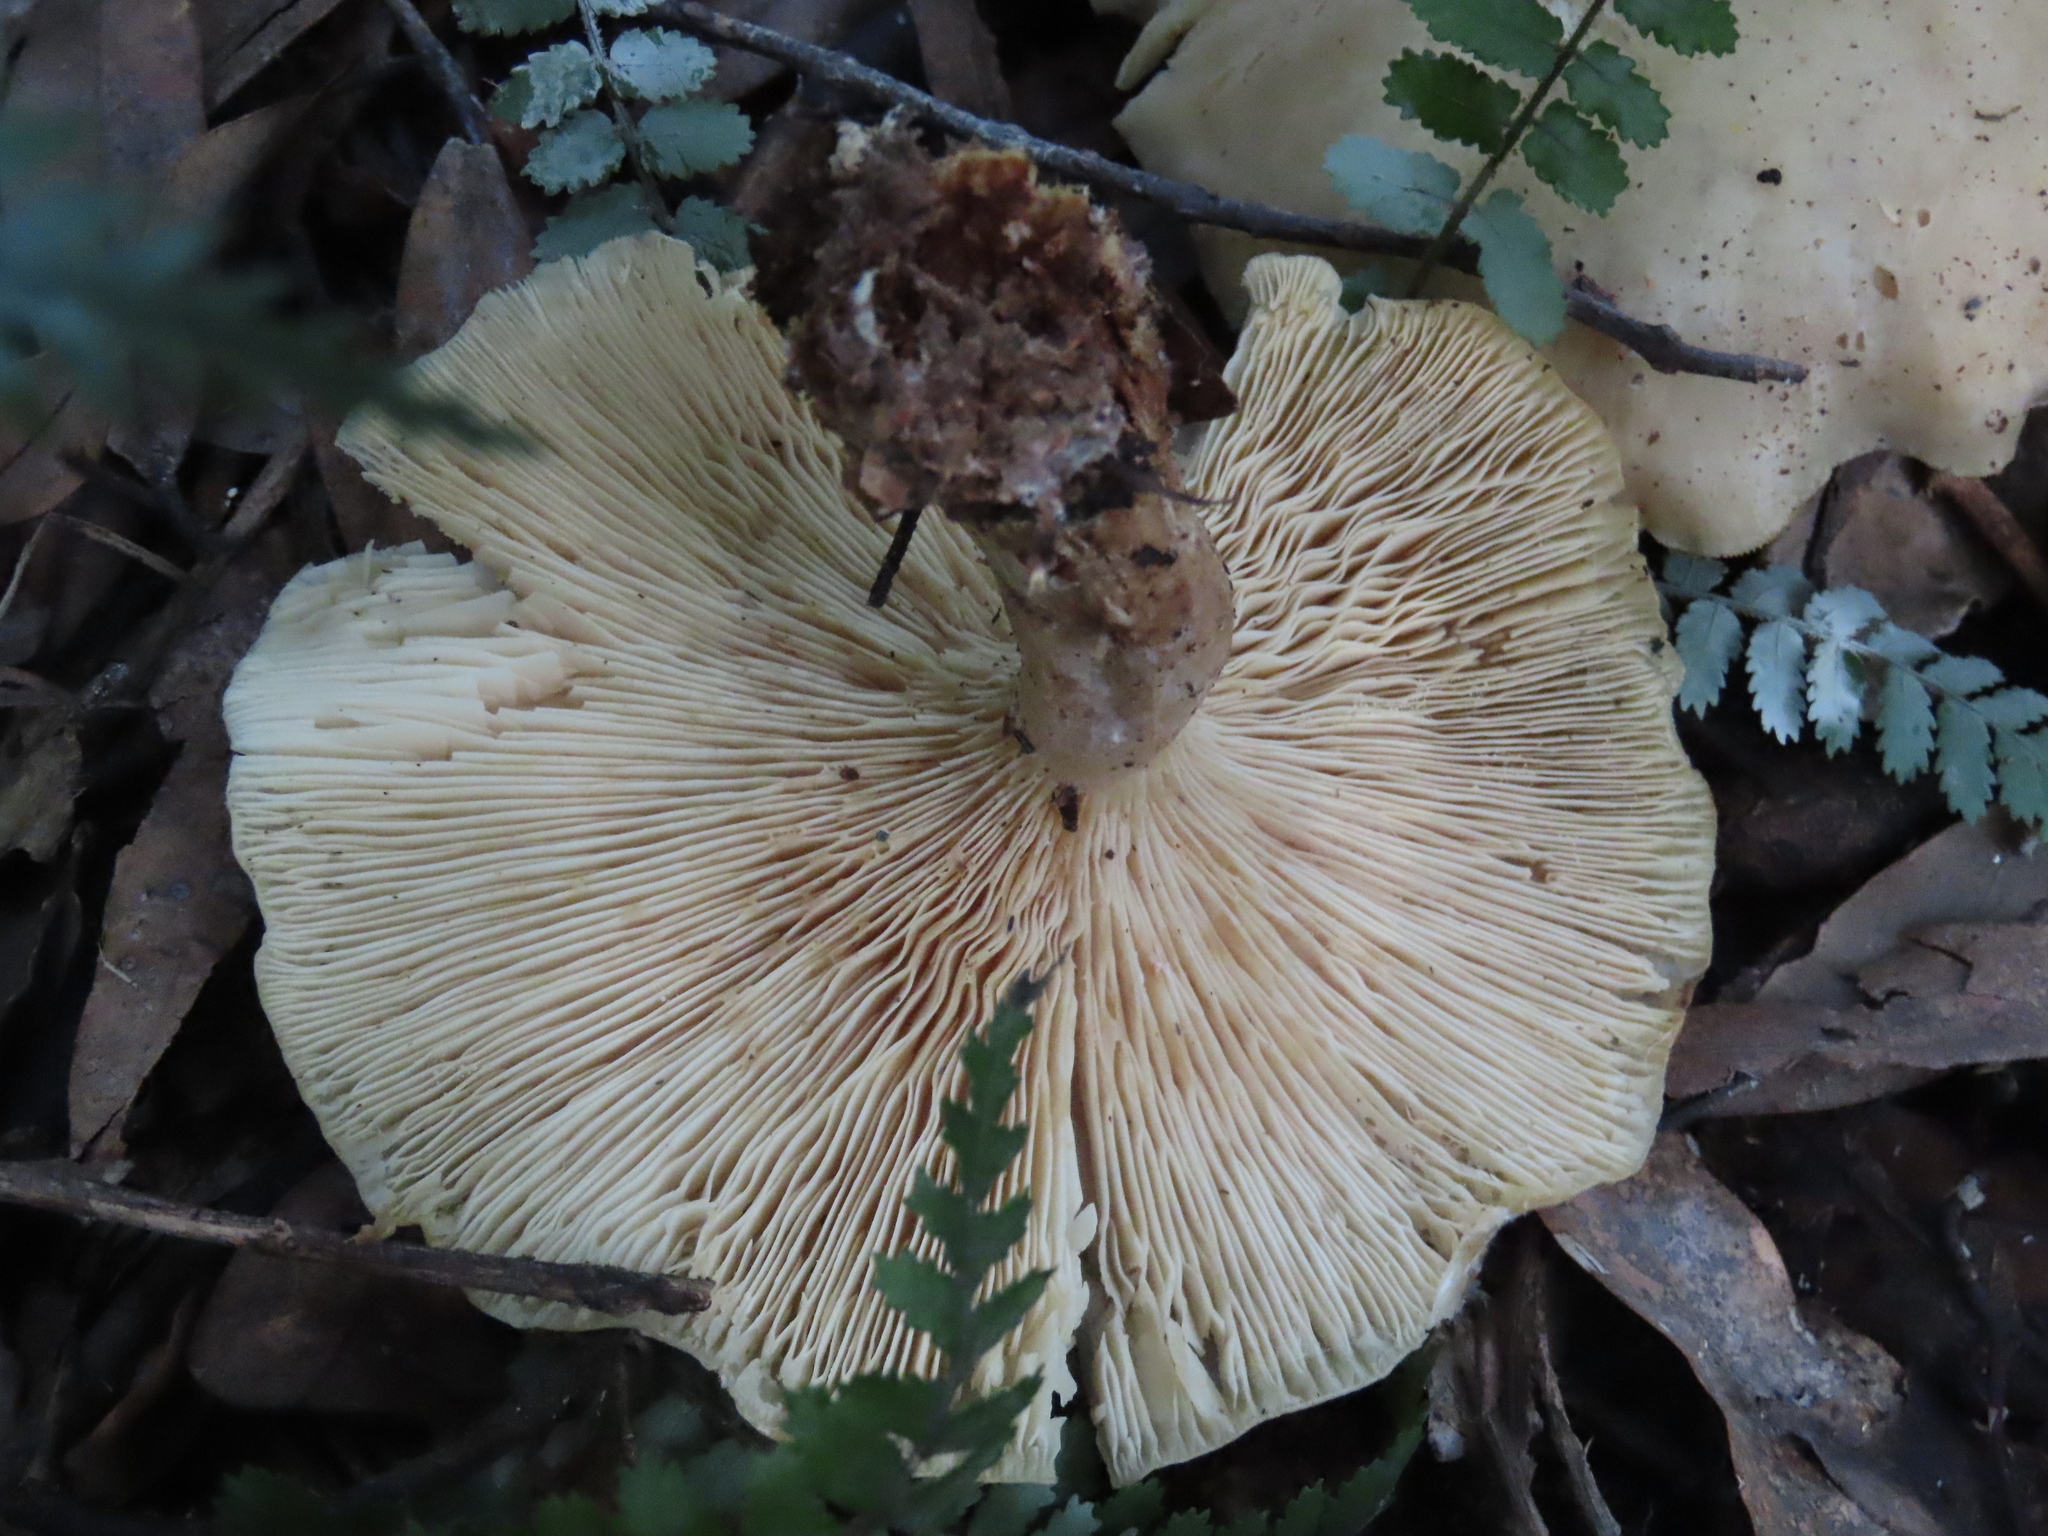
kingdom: Fungi
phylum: Basidiomycota
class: Agaricomycetes
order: Agaricales
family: Tricholomataceae
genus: Clitocybe
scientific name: Clitocybe nebularis
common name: Clouded agaric
